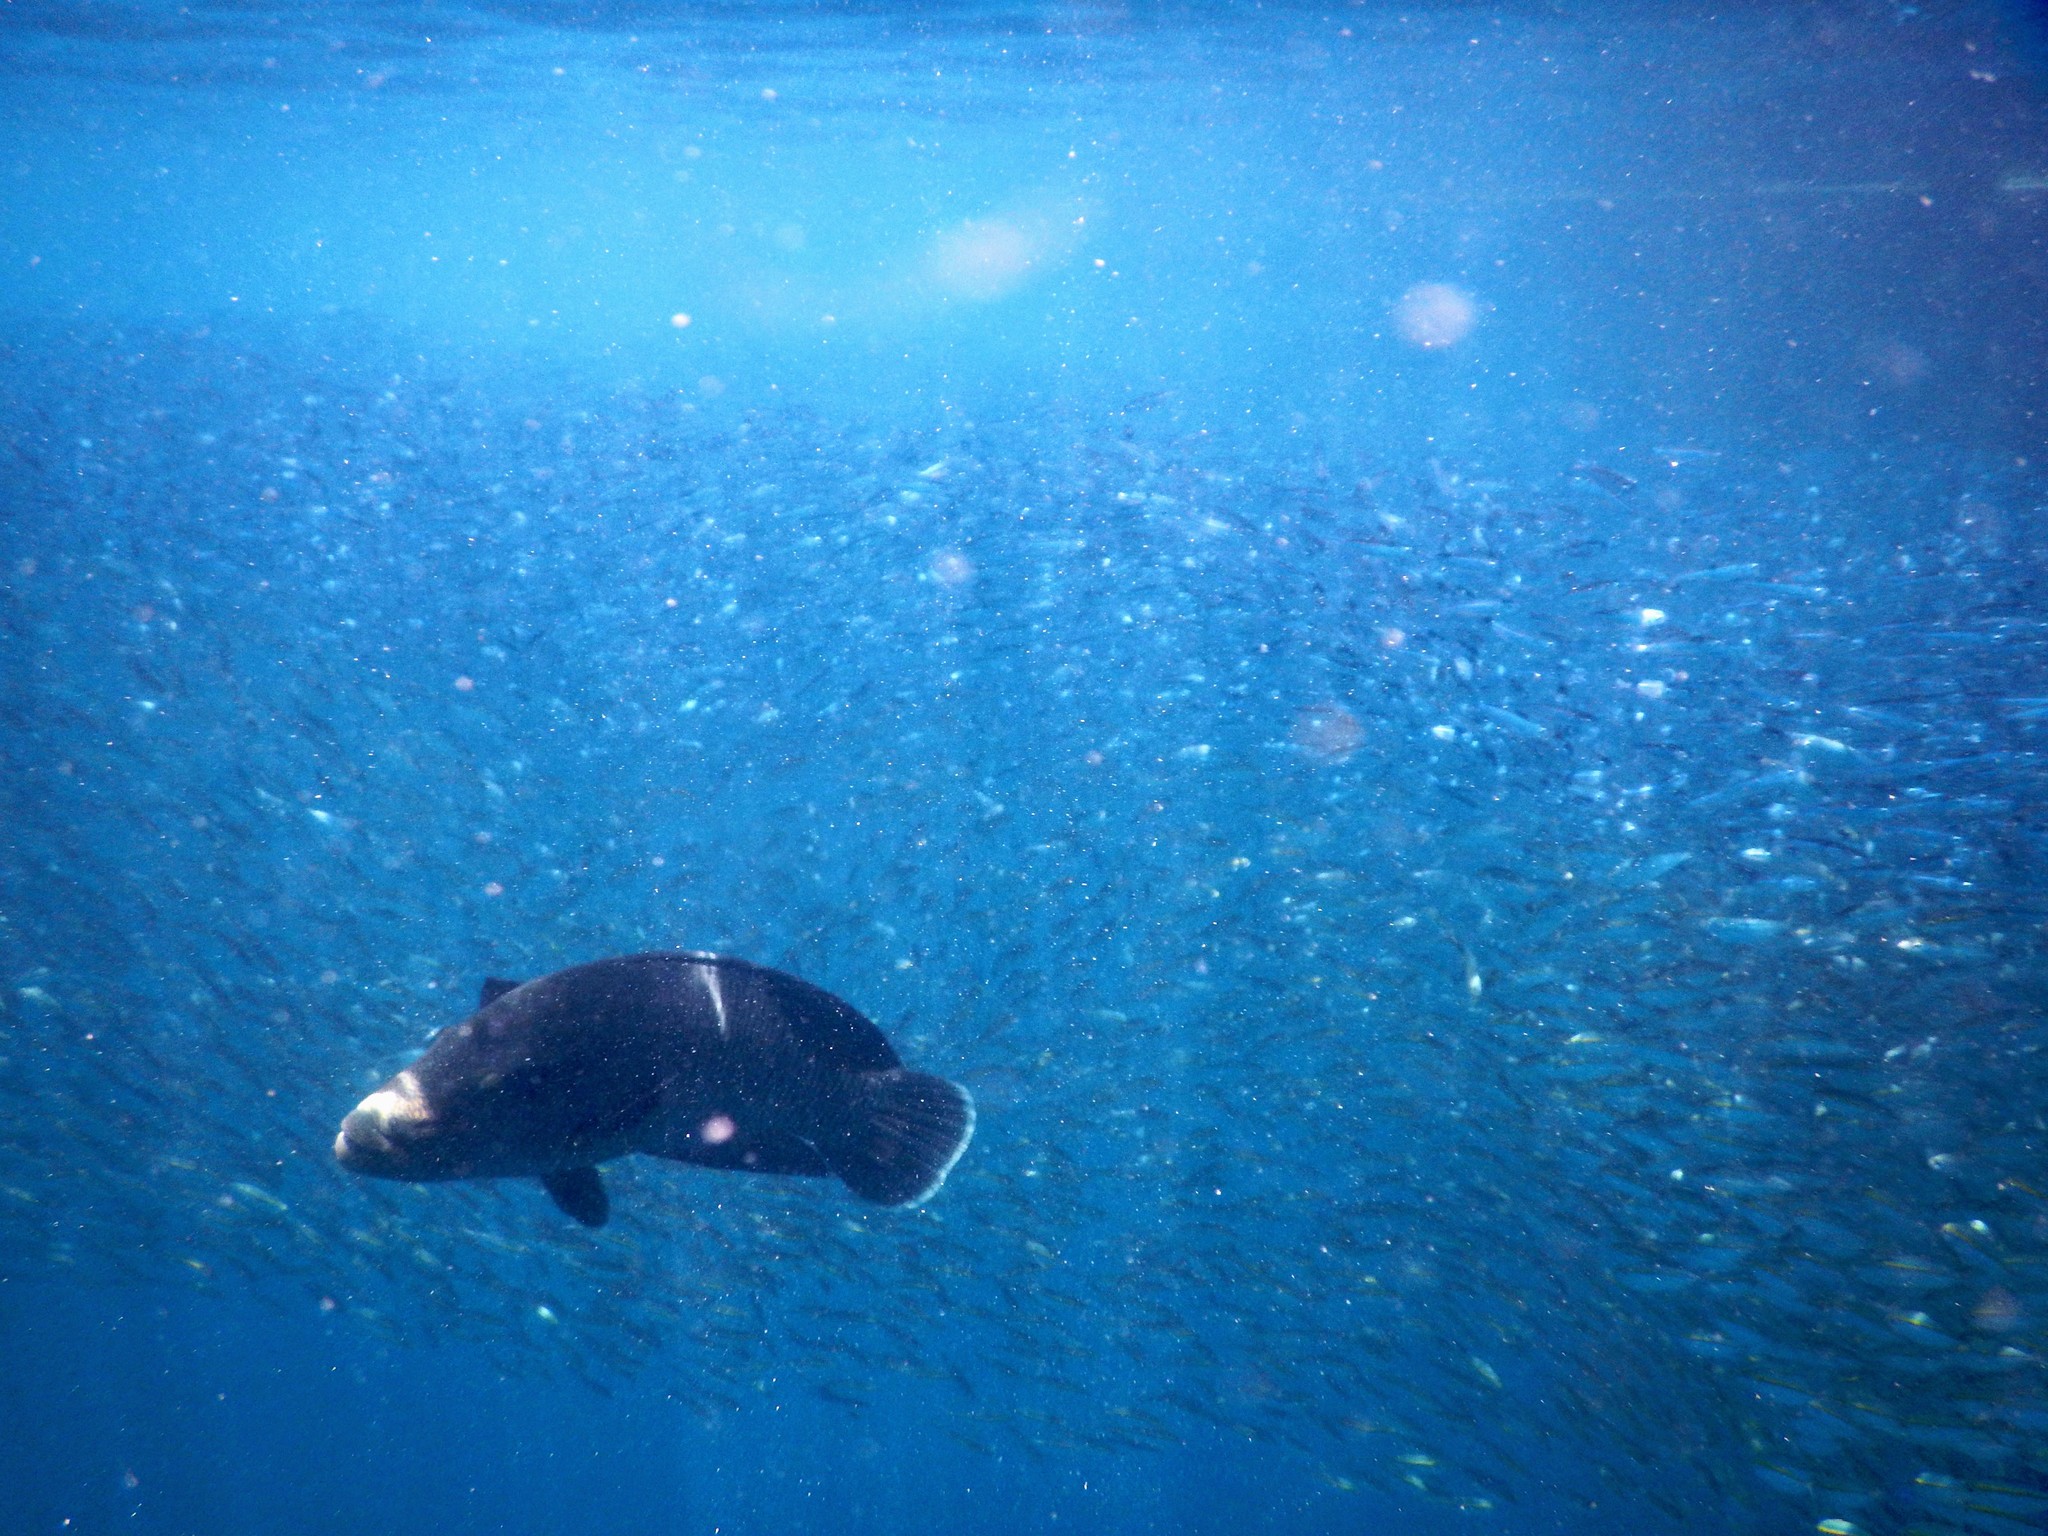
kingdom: Animalia
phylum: Chordata
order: Perciformes
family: Labridae
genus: Cheilinus
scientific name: Cheilinus undulatus
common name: Humphead wrasse
